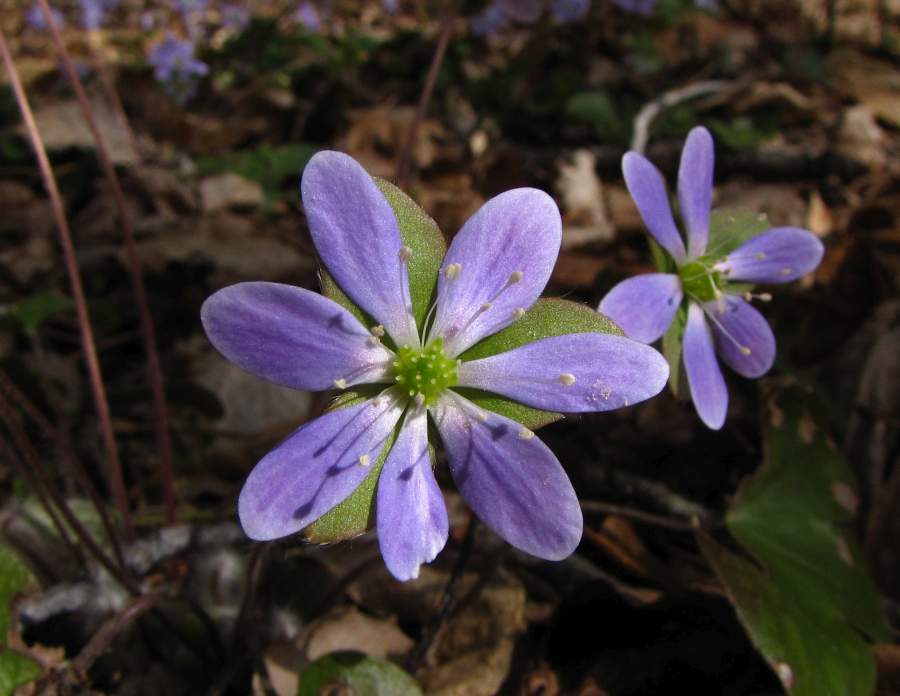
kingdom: Plantae
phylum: Tracheophyta
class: Magnoliopsida
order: Ranunculales
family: Ranunculaceae
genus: Hepatica
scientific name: Hepatica acutiloba
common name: Sharp-lobed hepatica
